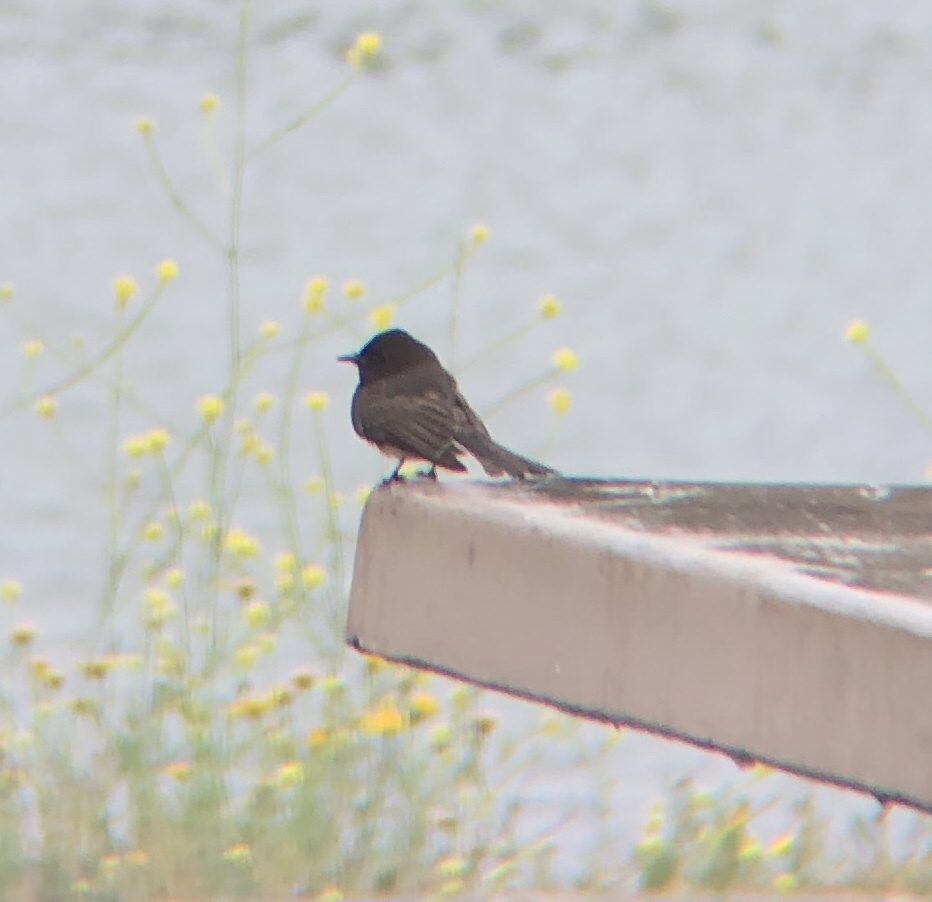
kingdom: Animalia
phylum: Chordata
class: Aves
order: Passeriformes
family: Tyrannidae
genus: Sayornis
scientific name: Sayornis nigricans
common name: Black phoebe
